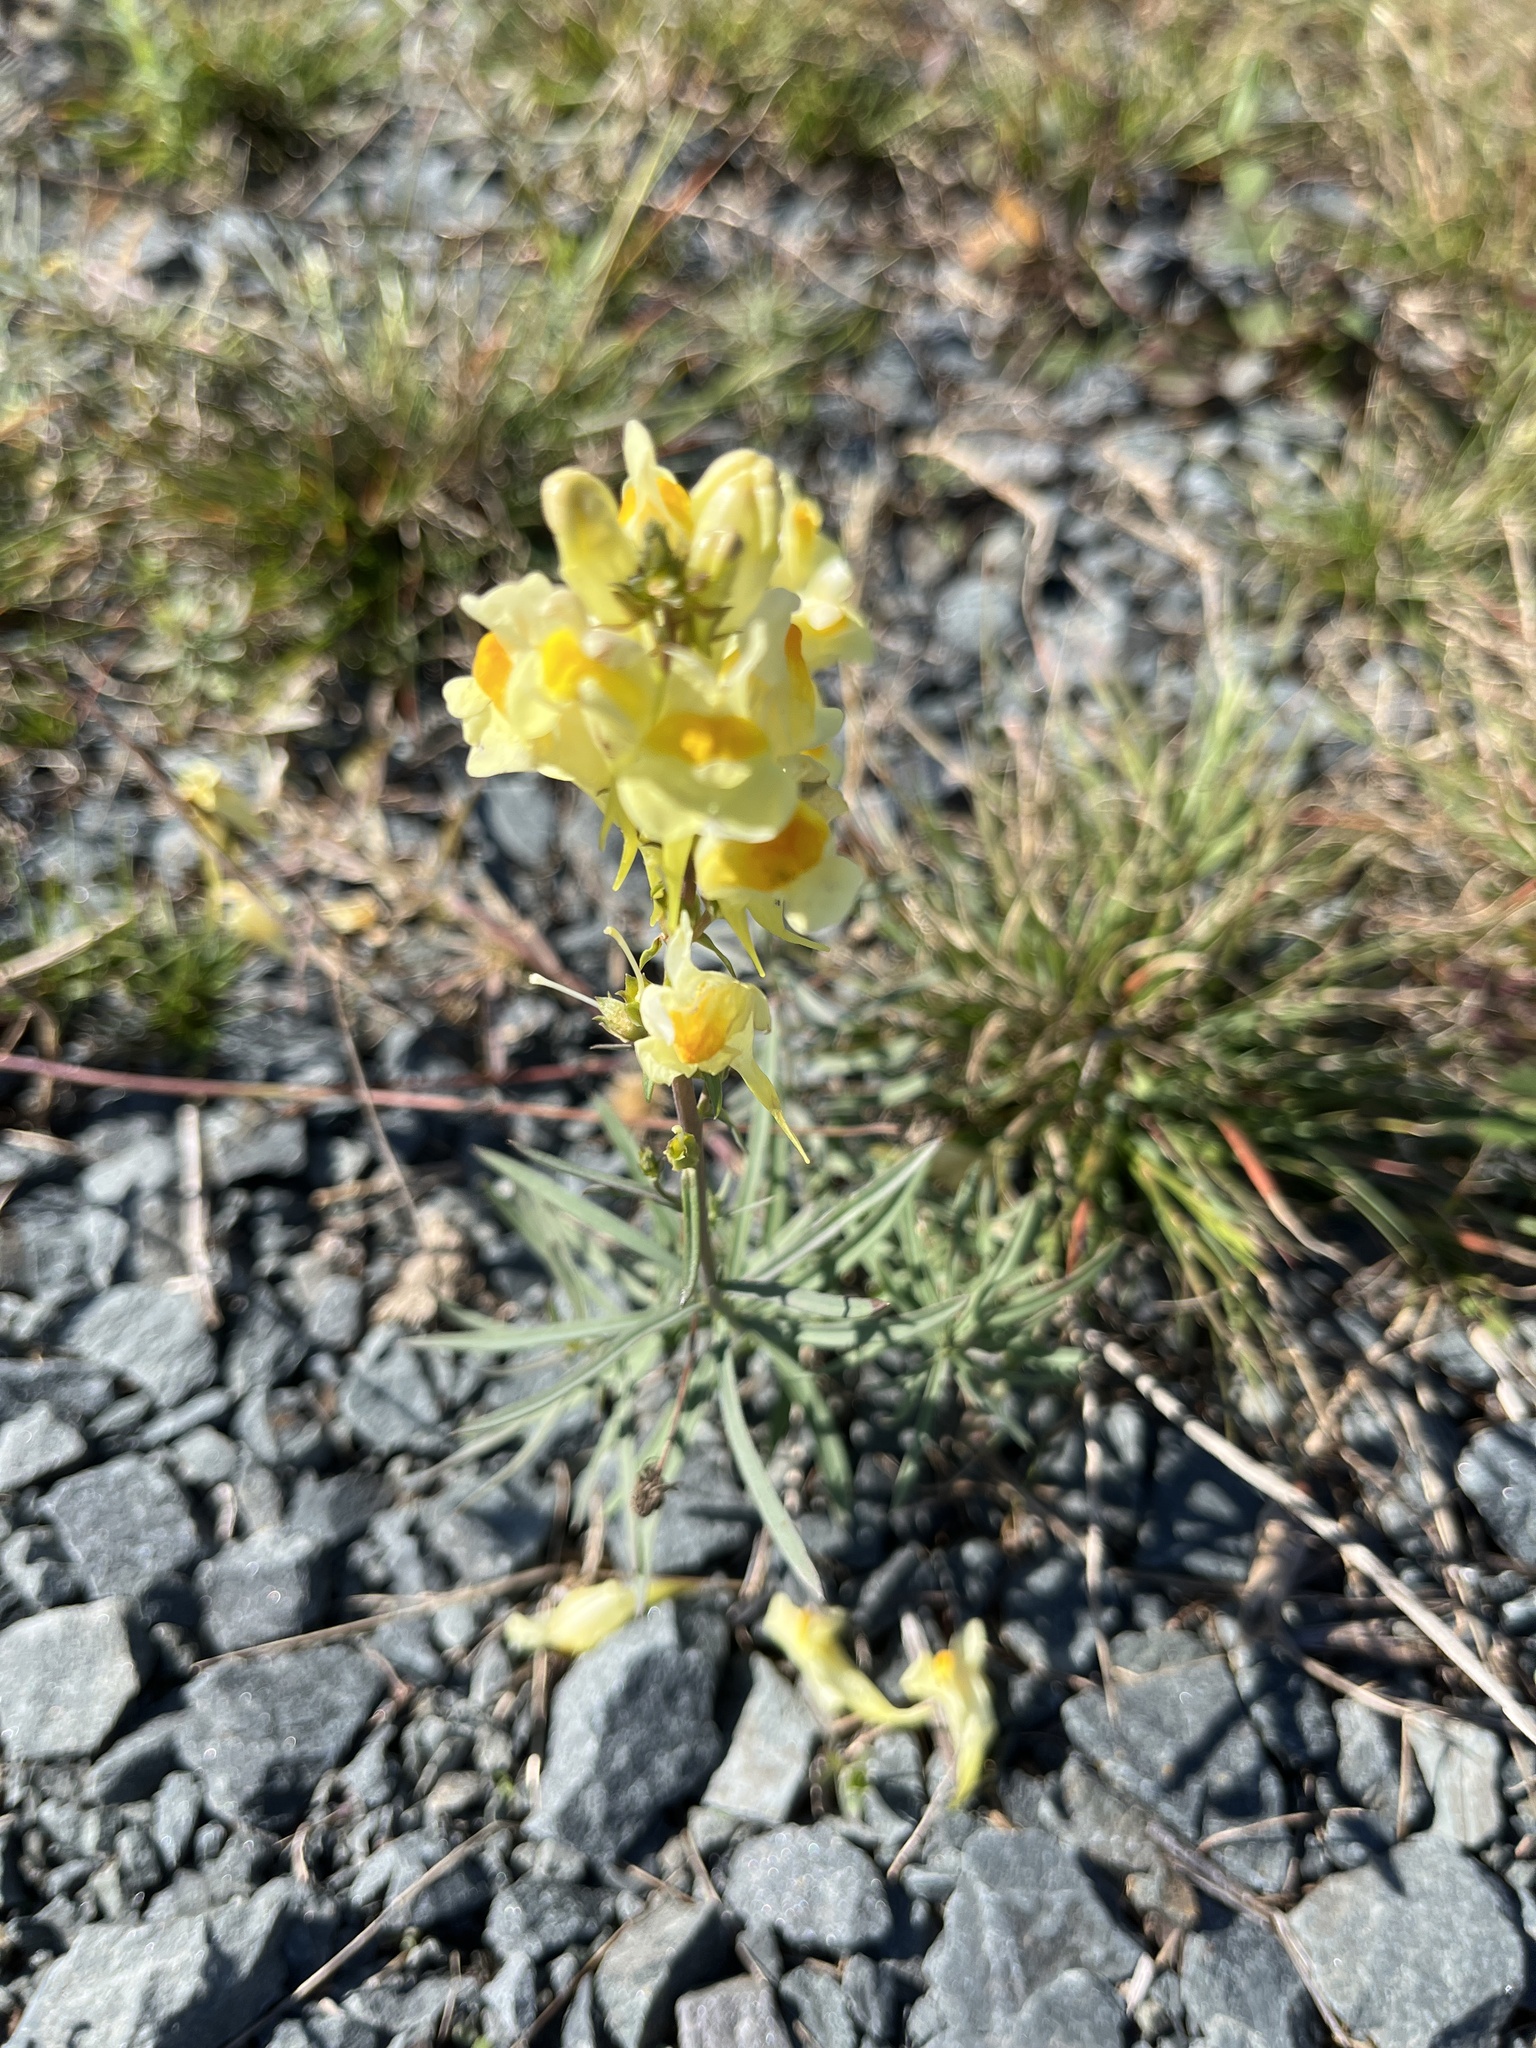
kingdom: Plantae
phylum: Tracheophyta
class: Magnoliopsida
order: Lamiales
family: Plantaginaceae
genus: Linaria
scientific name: Linaria vulgaris
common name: Butter and eggs
